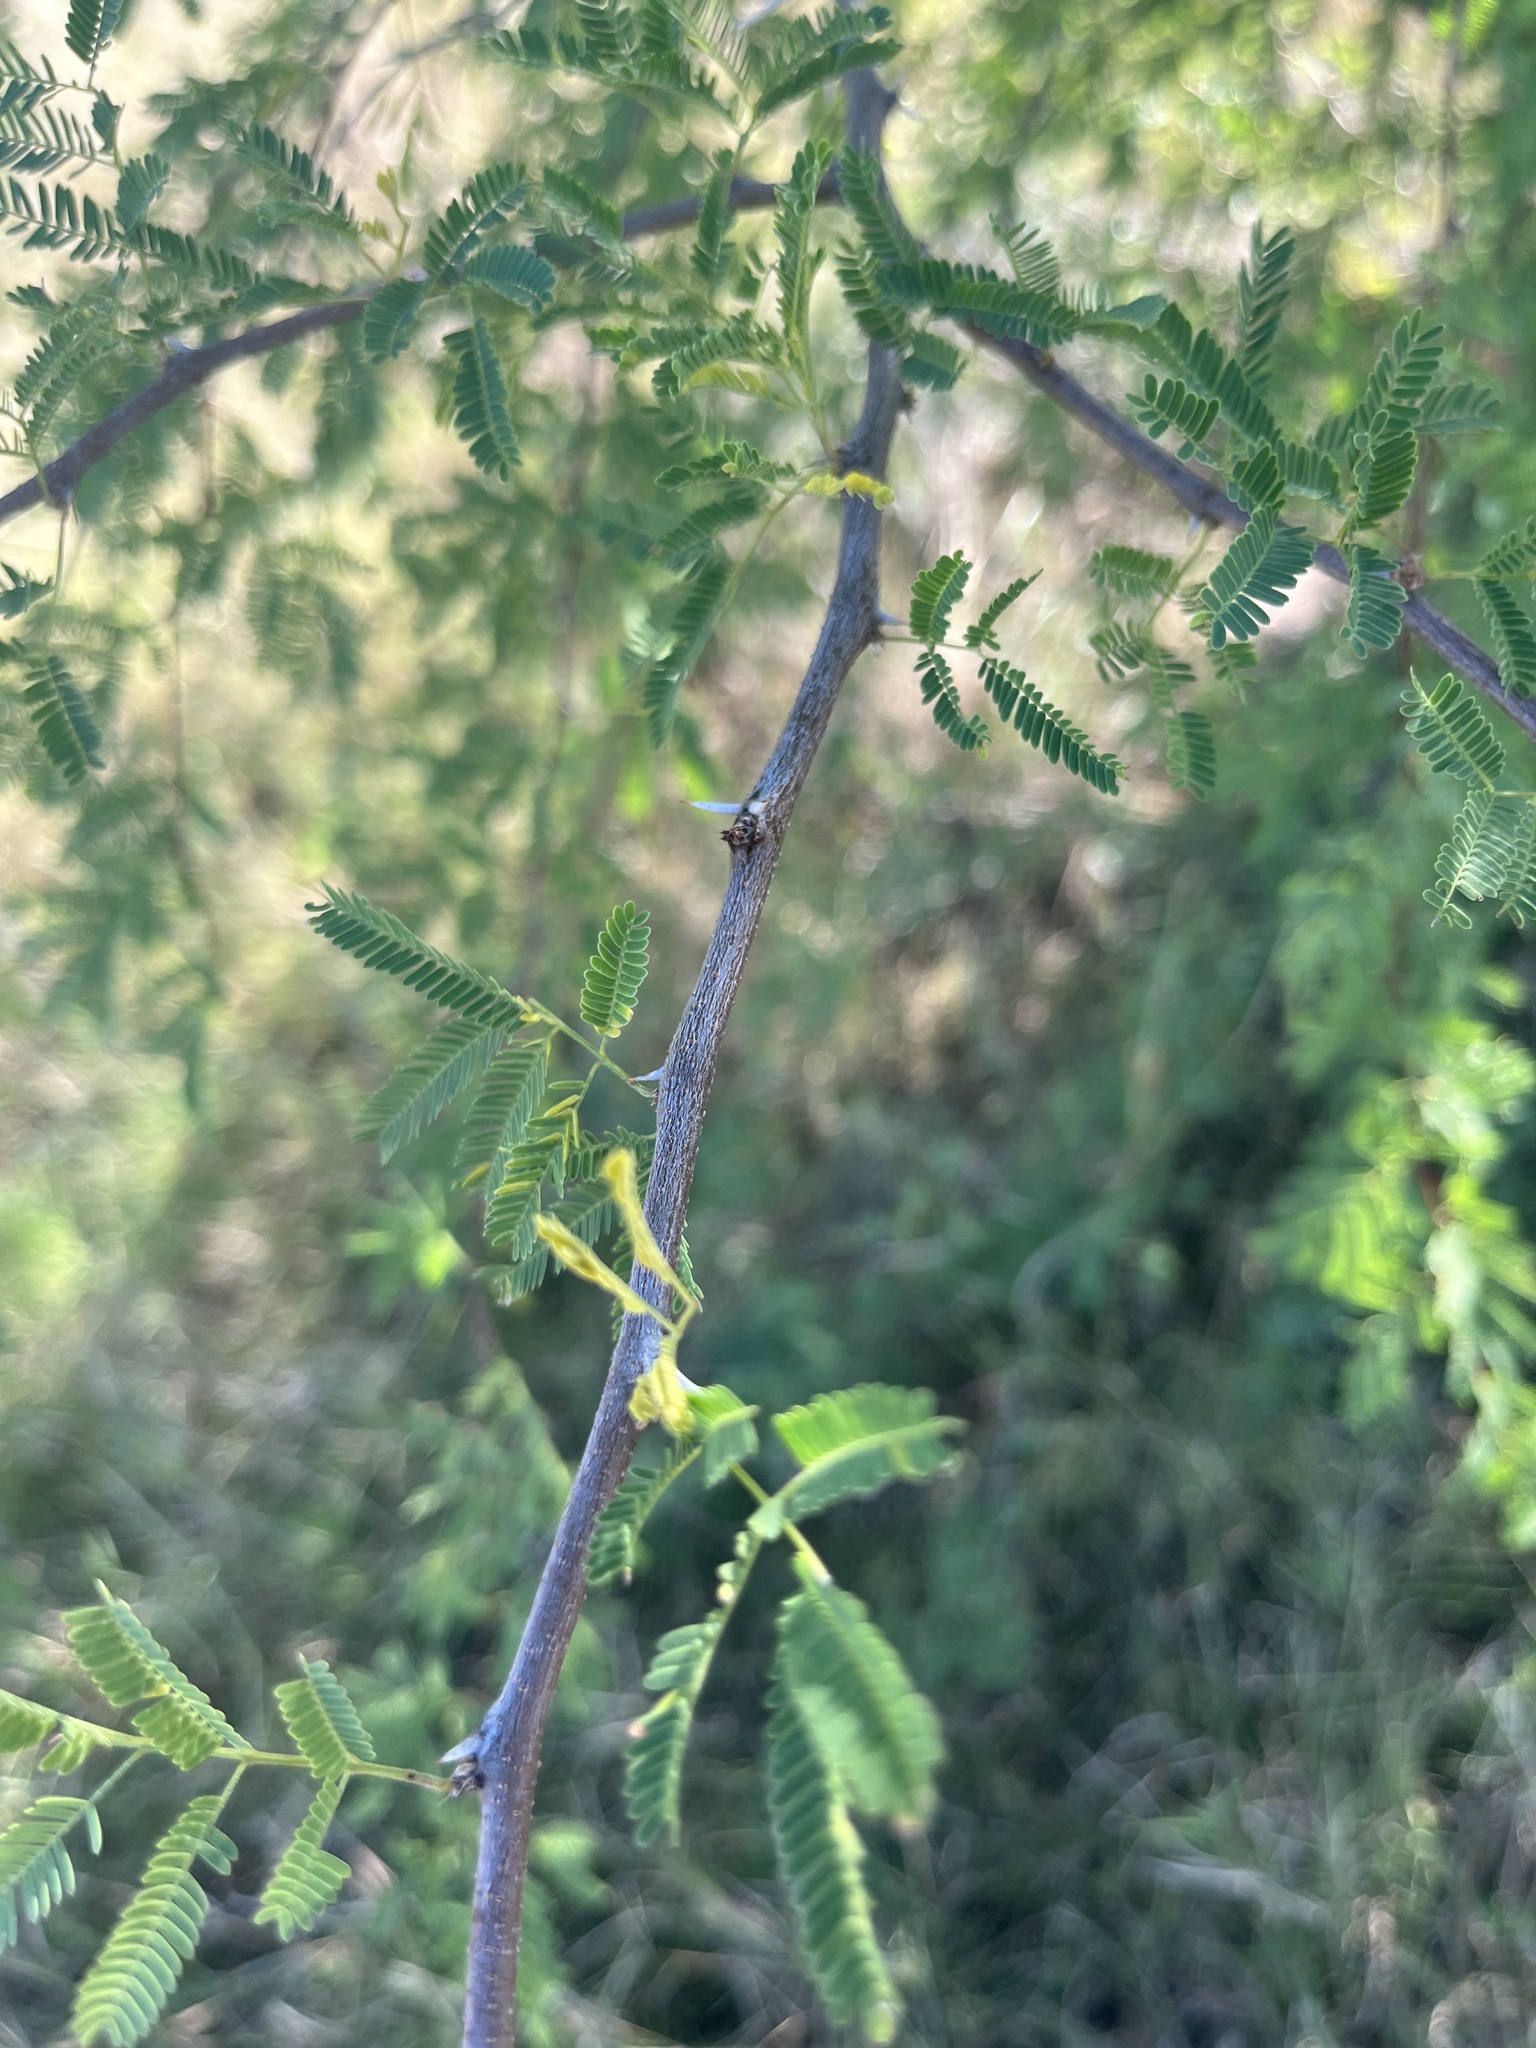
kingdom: Plantae
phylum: Tracheophyta
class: Magnoliopsida
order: Fabales
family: Fabaceae
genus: Vachellia
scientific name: Vachellia farnesiana
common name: Sweet acacia
